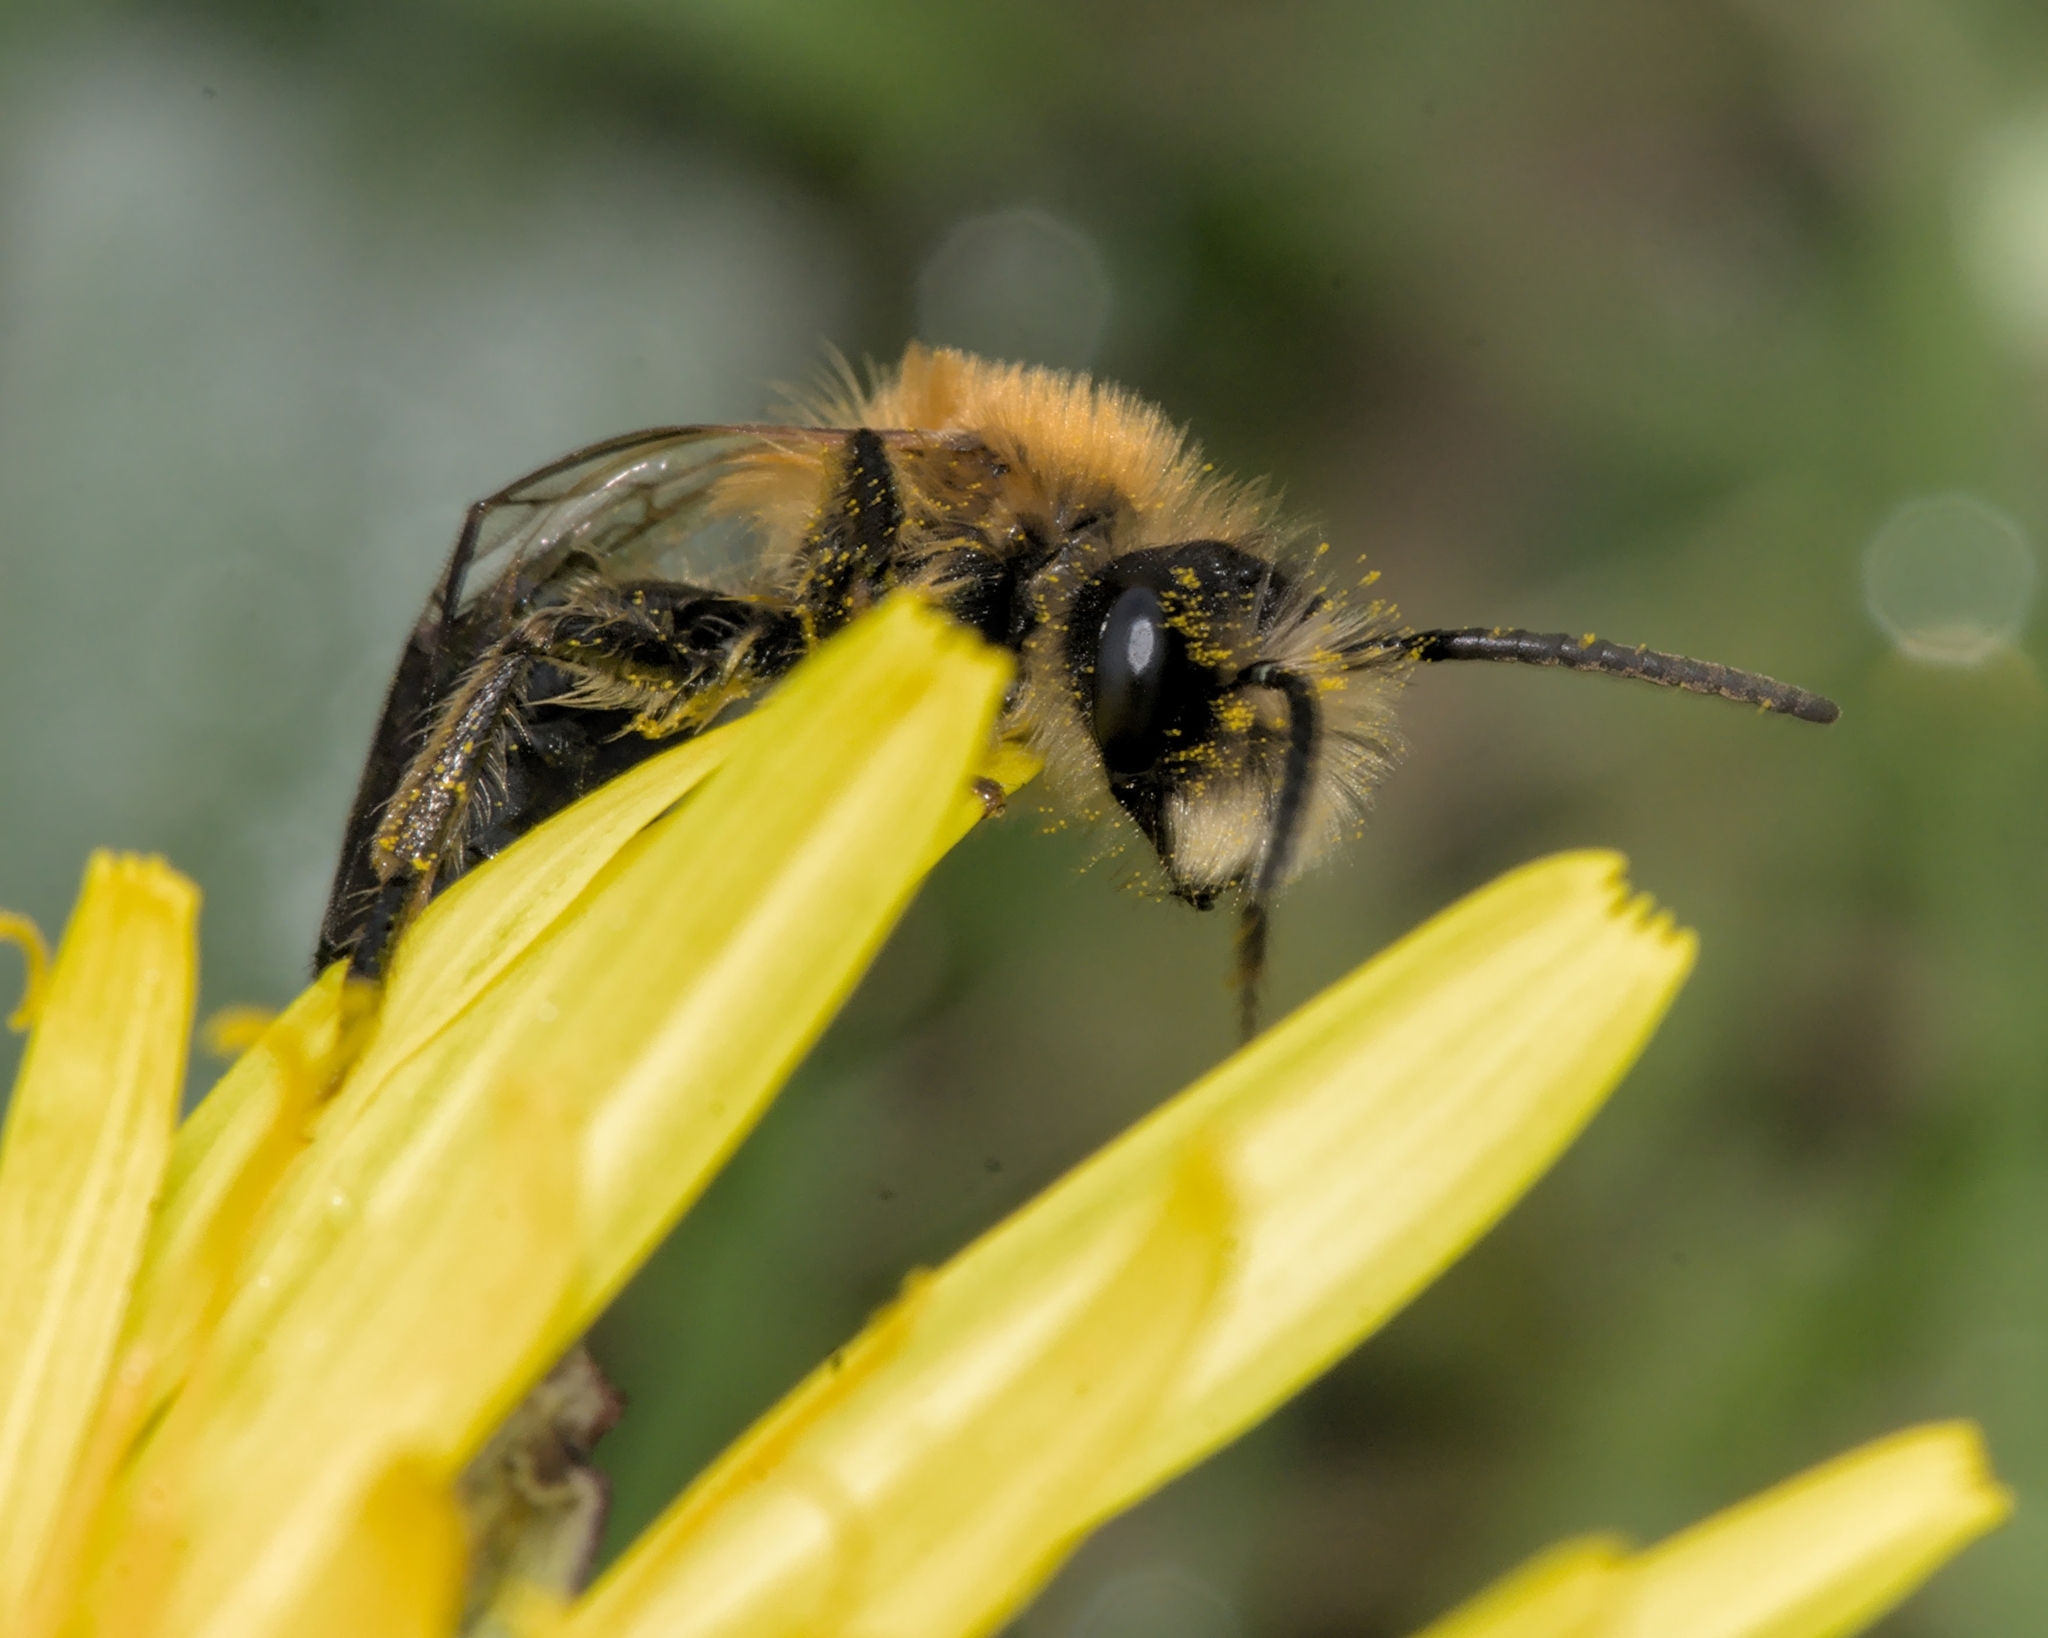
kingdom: Animalia
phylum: Arthropoda
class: Insecta
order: Hymenoptera
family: Andrenidae
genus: Andrena
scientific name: Andrena nitida
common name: Grey-patched mining bee
